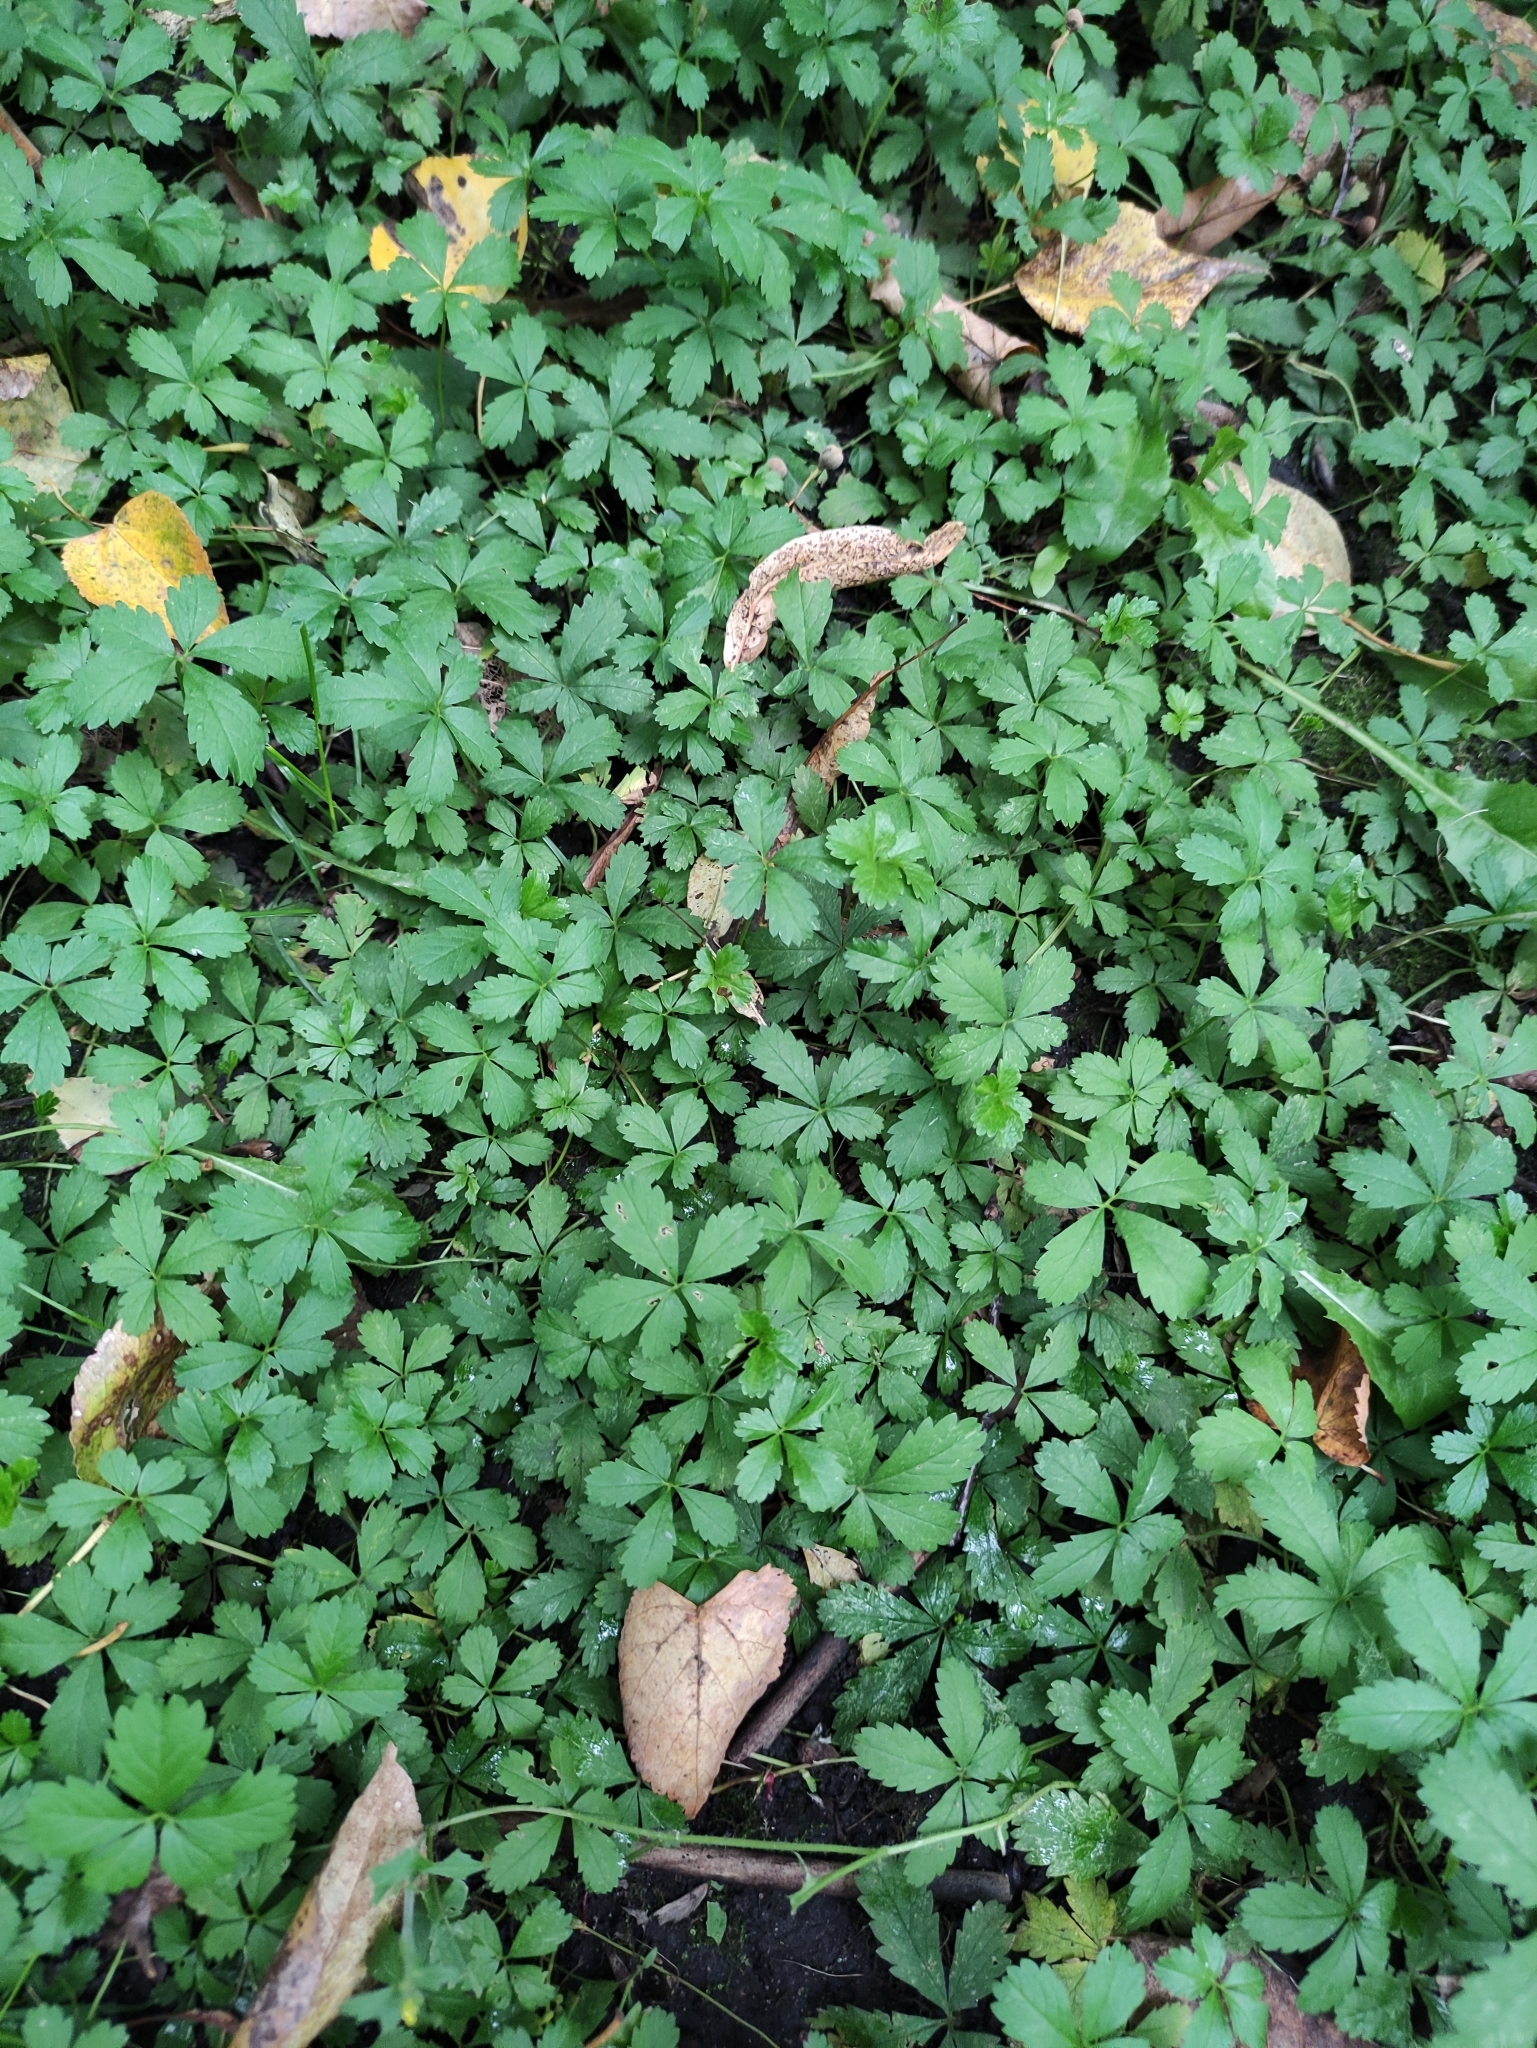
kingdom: Plantae
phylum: Tracheophyta
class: Magnoliopsida
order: Rosales
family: Rosaceae
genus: Potentilla
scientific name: Potentilla reptans
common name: Creeping cinquefoil
